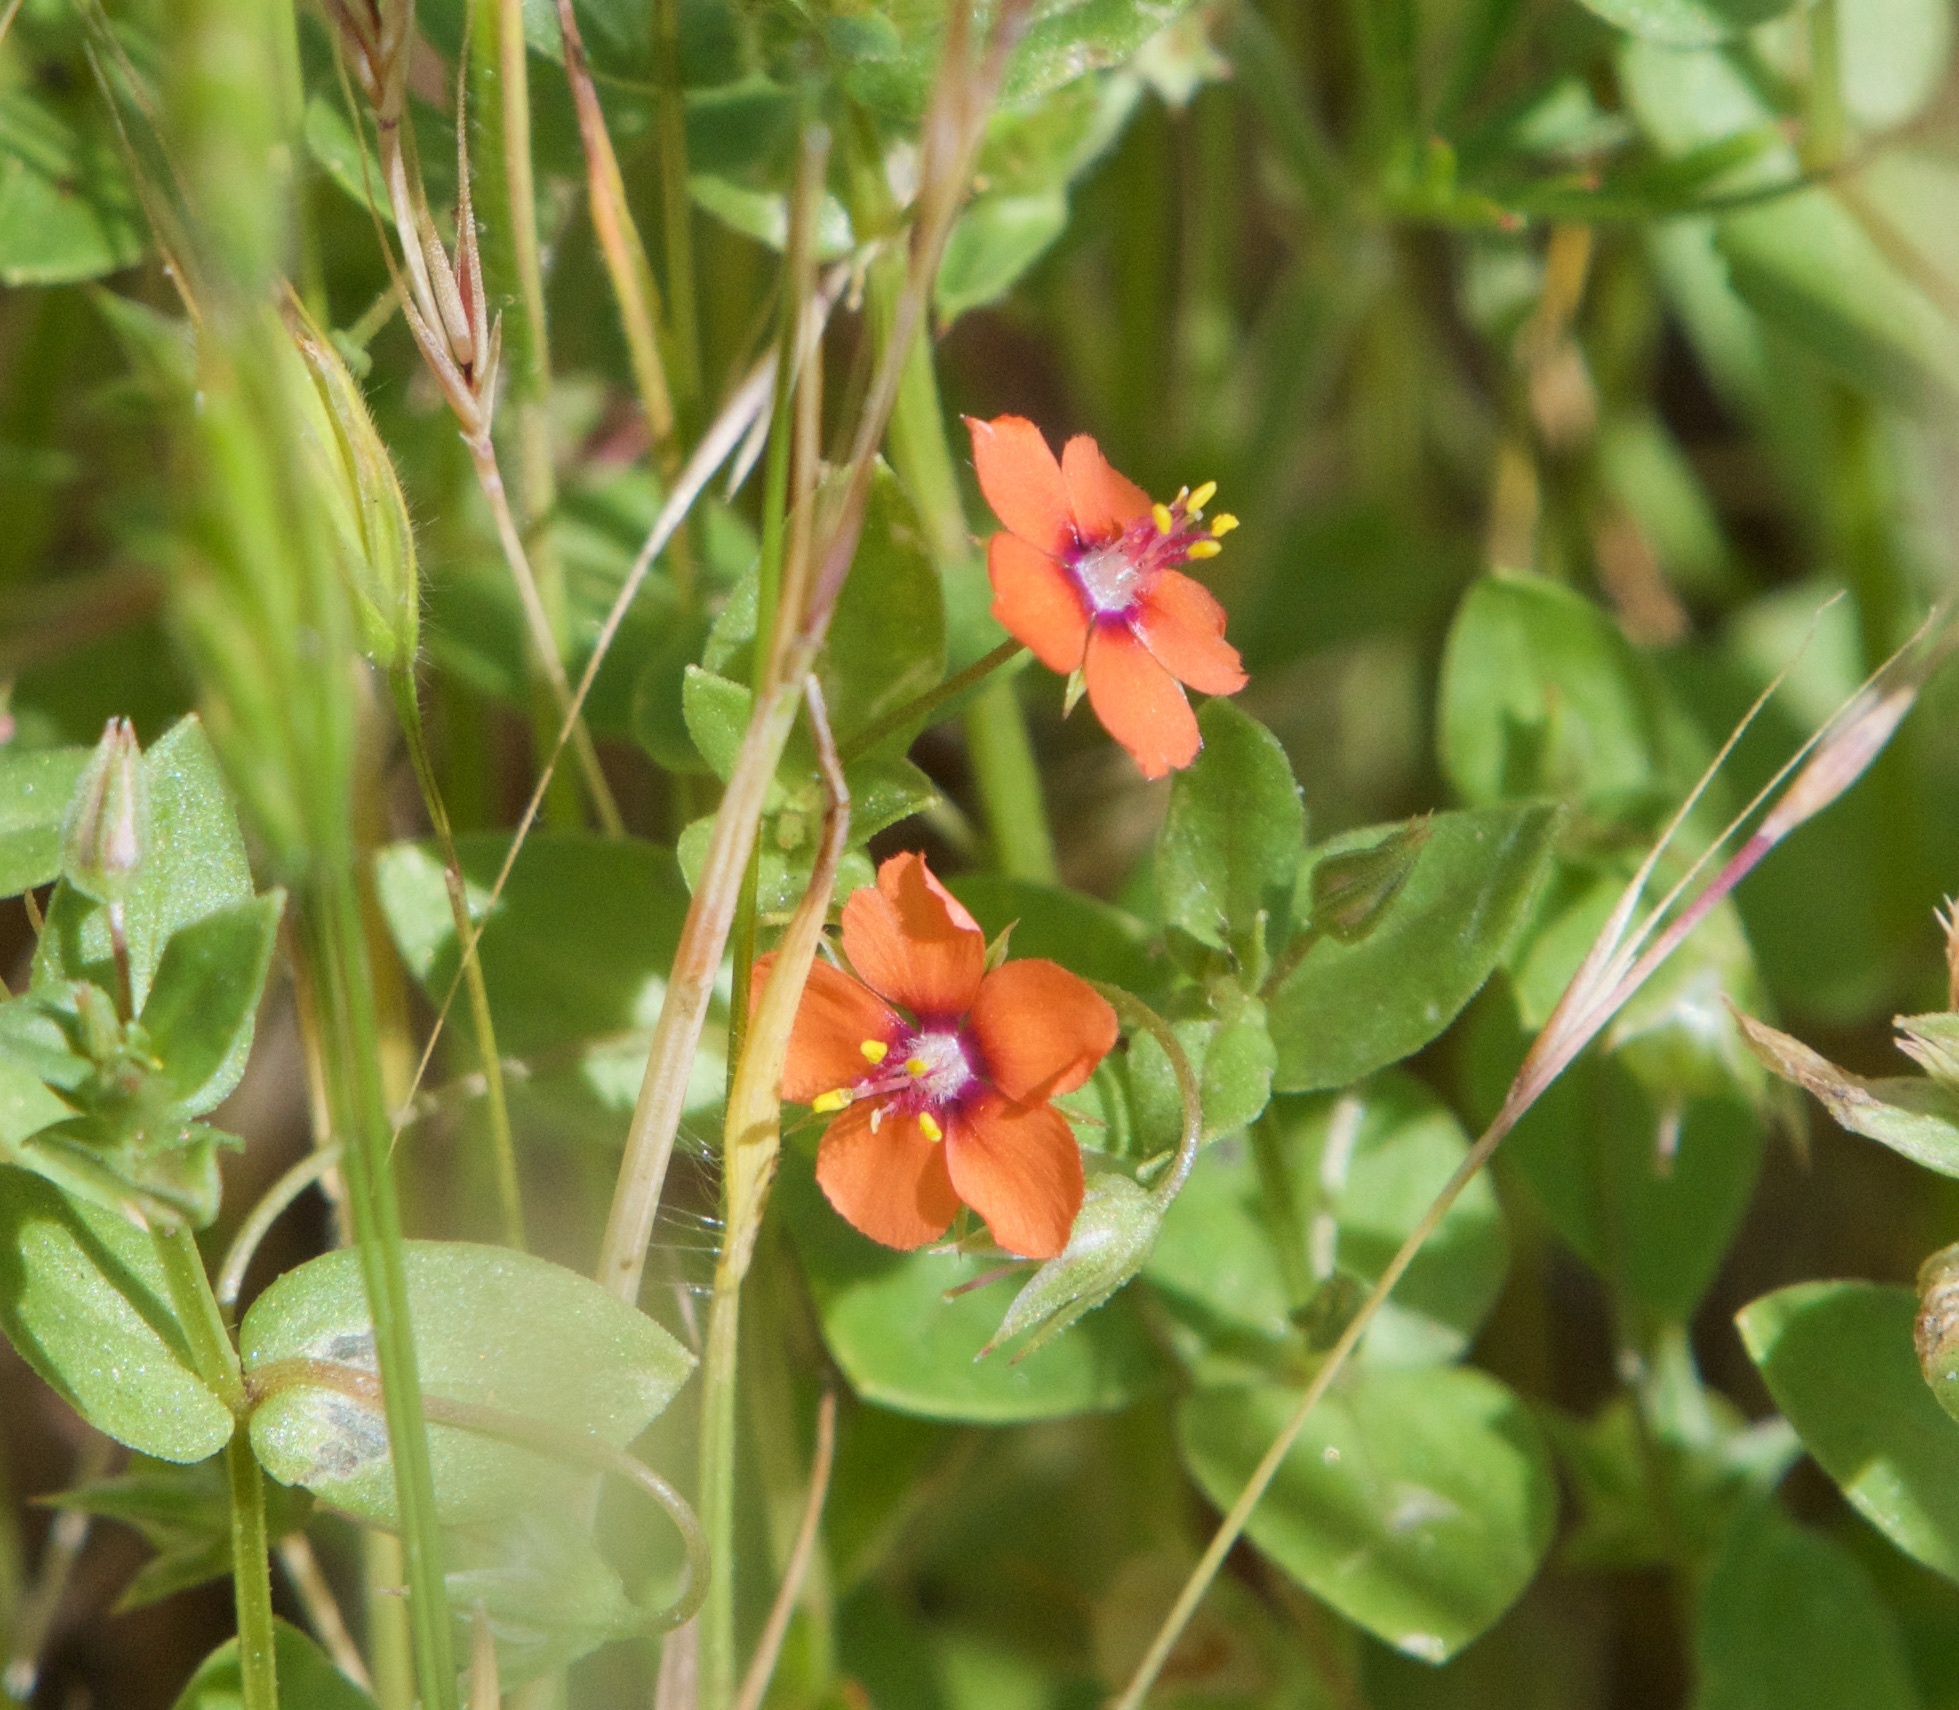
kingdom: Plantae
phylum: Tracheophyta
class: Magnoliopsida
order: Ericales
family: Primulaceae
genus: Lysimachia
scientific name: Lysimachia arvensis
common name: Scarlet pimpernel
